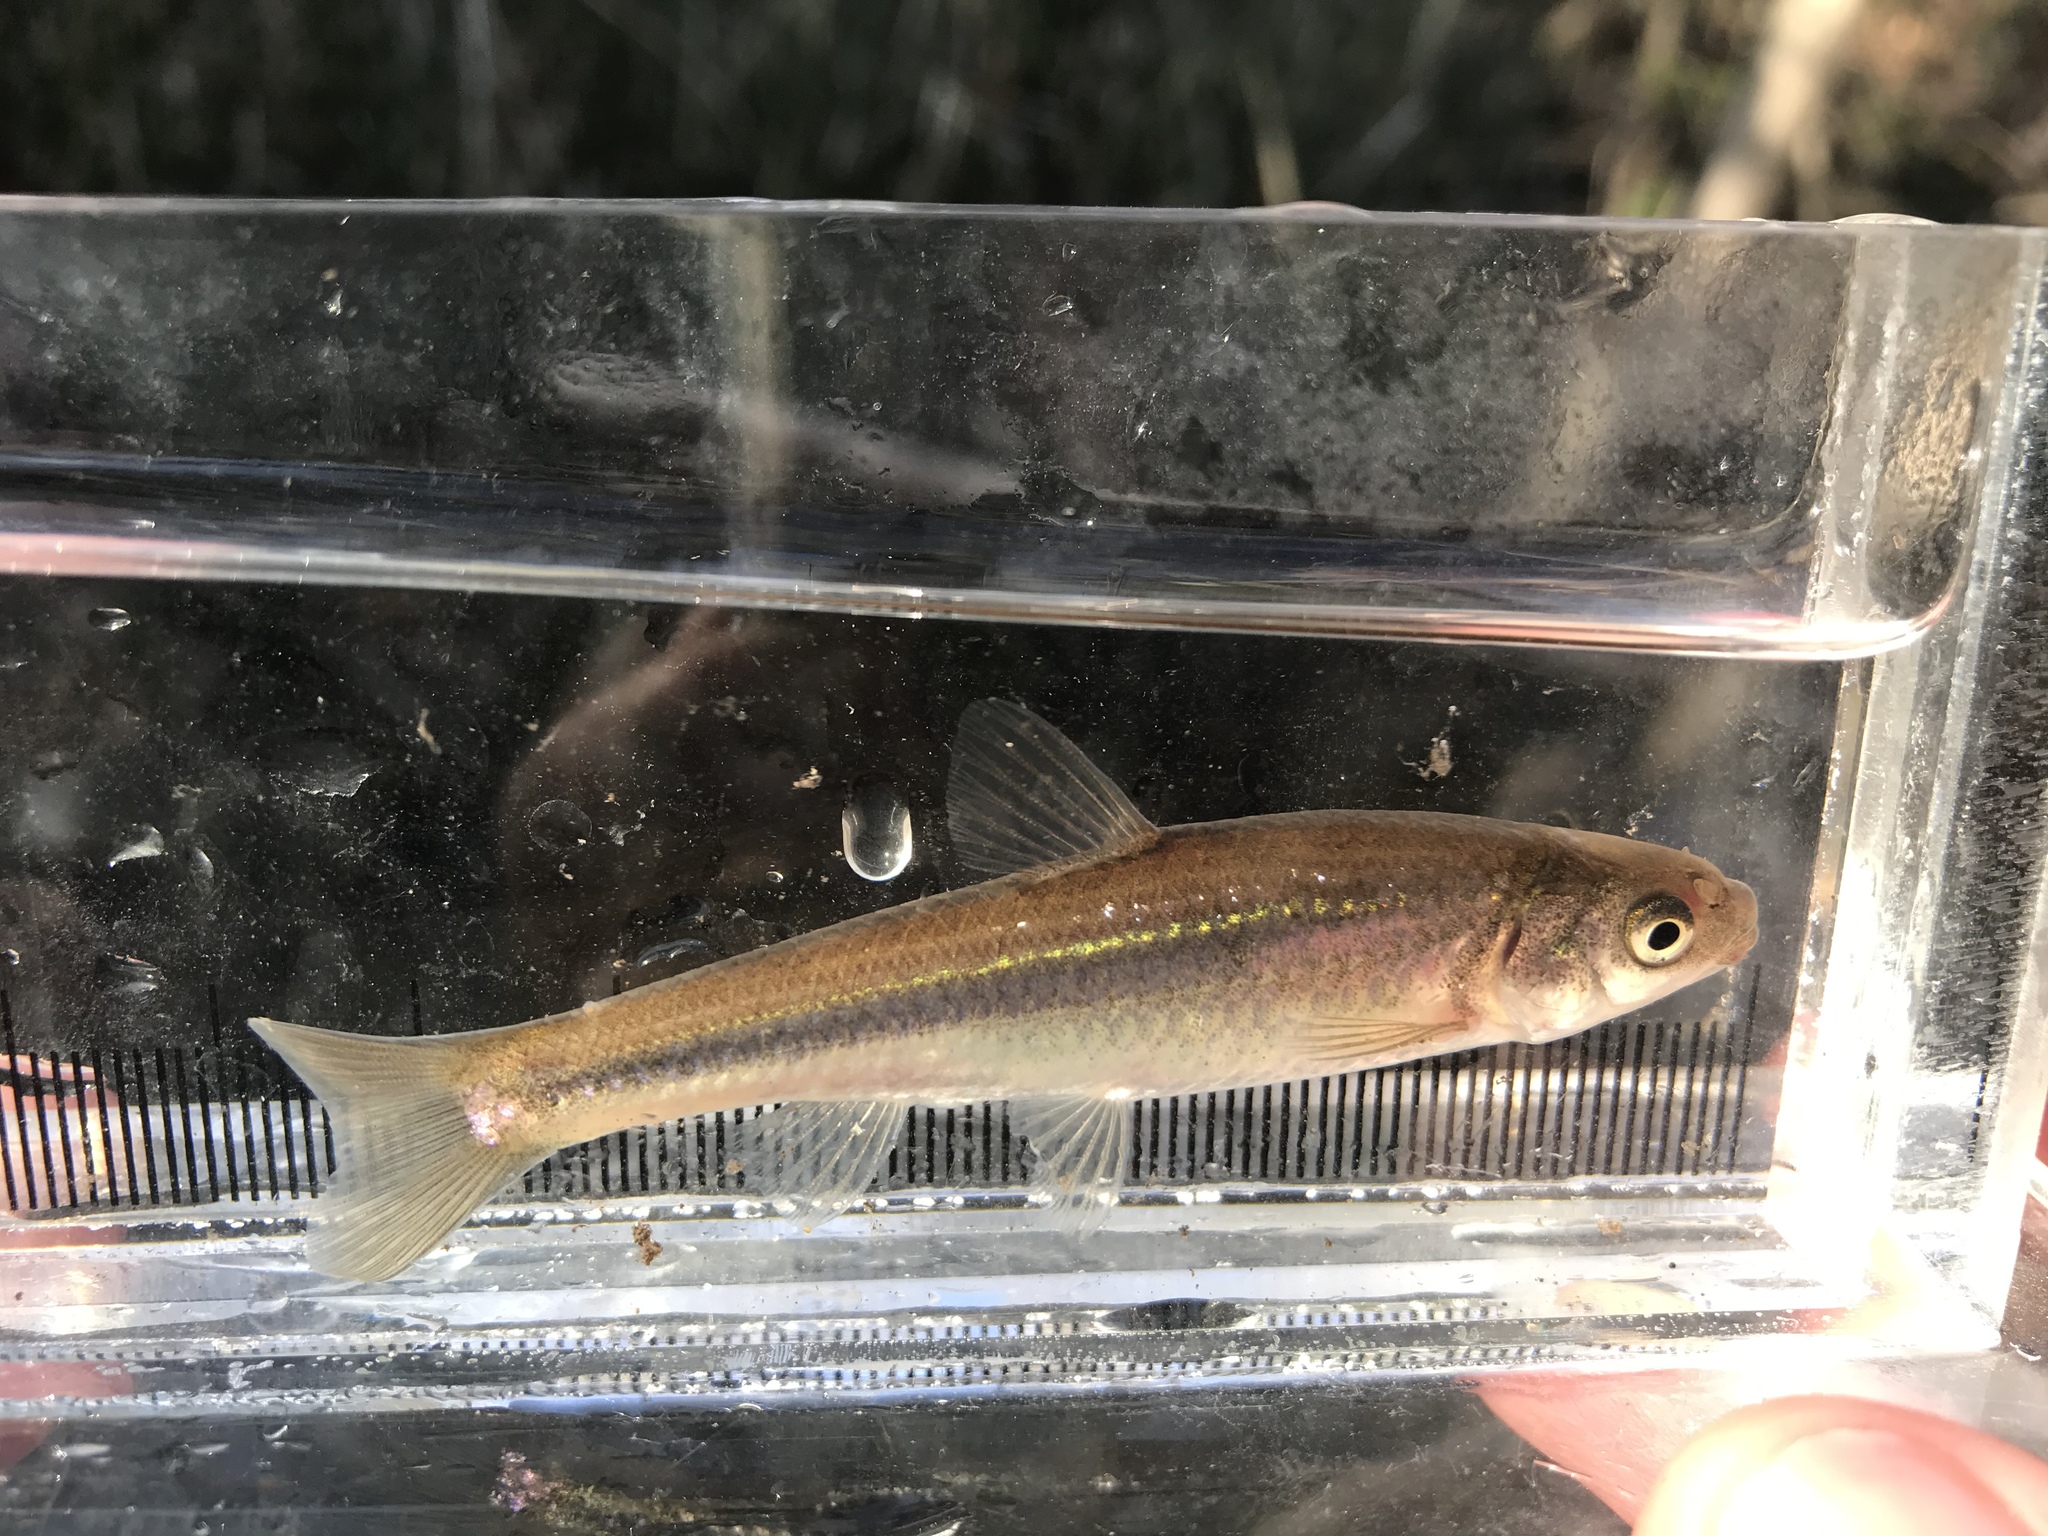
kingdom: Animalia
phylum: Chordata
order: Cypriniformes
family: Cyprinidae
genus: Hybognathus
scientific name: Hybognathus hankinsoni
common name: Brassy minnow
